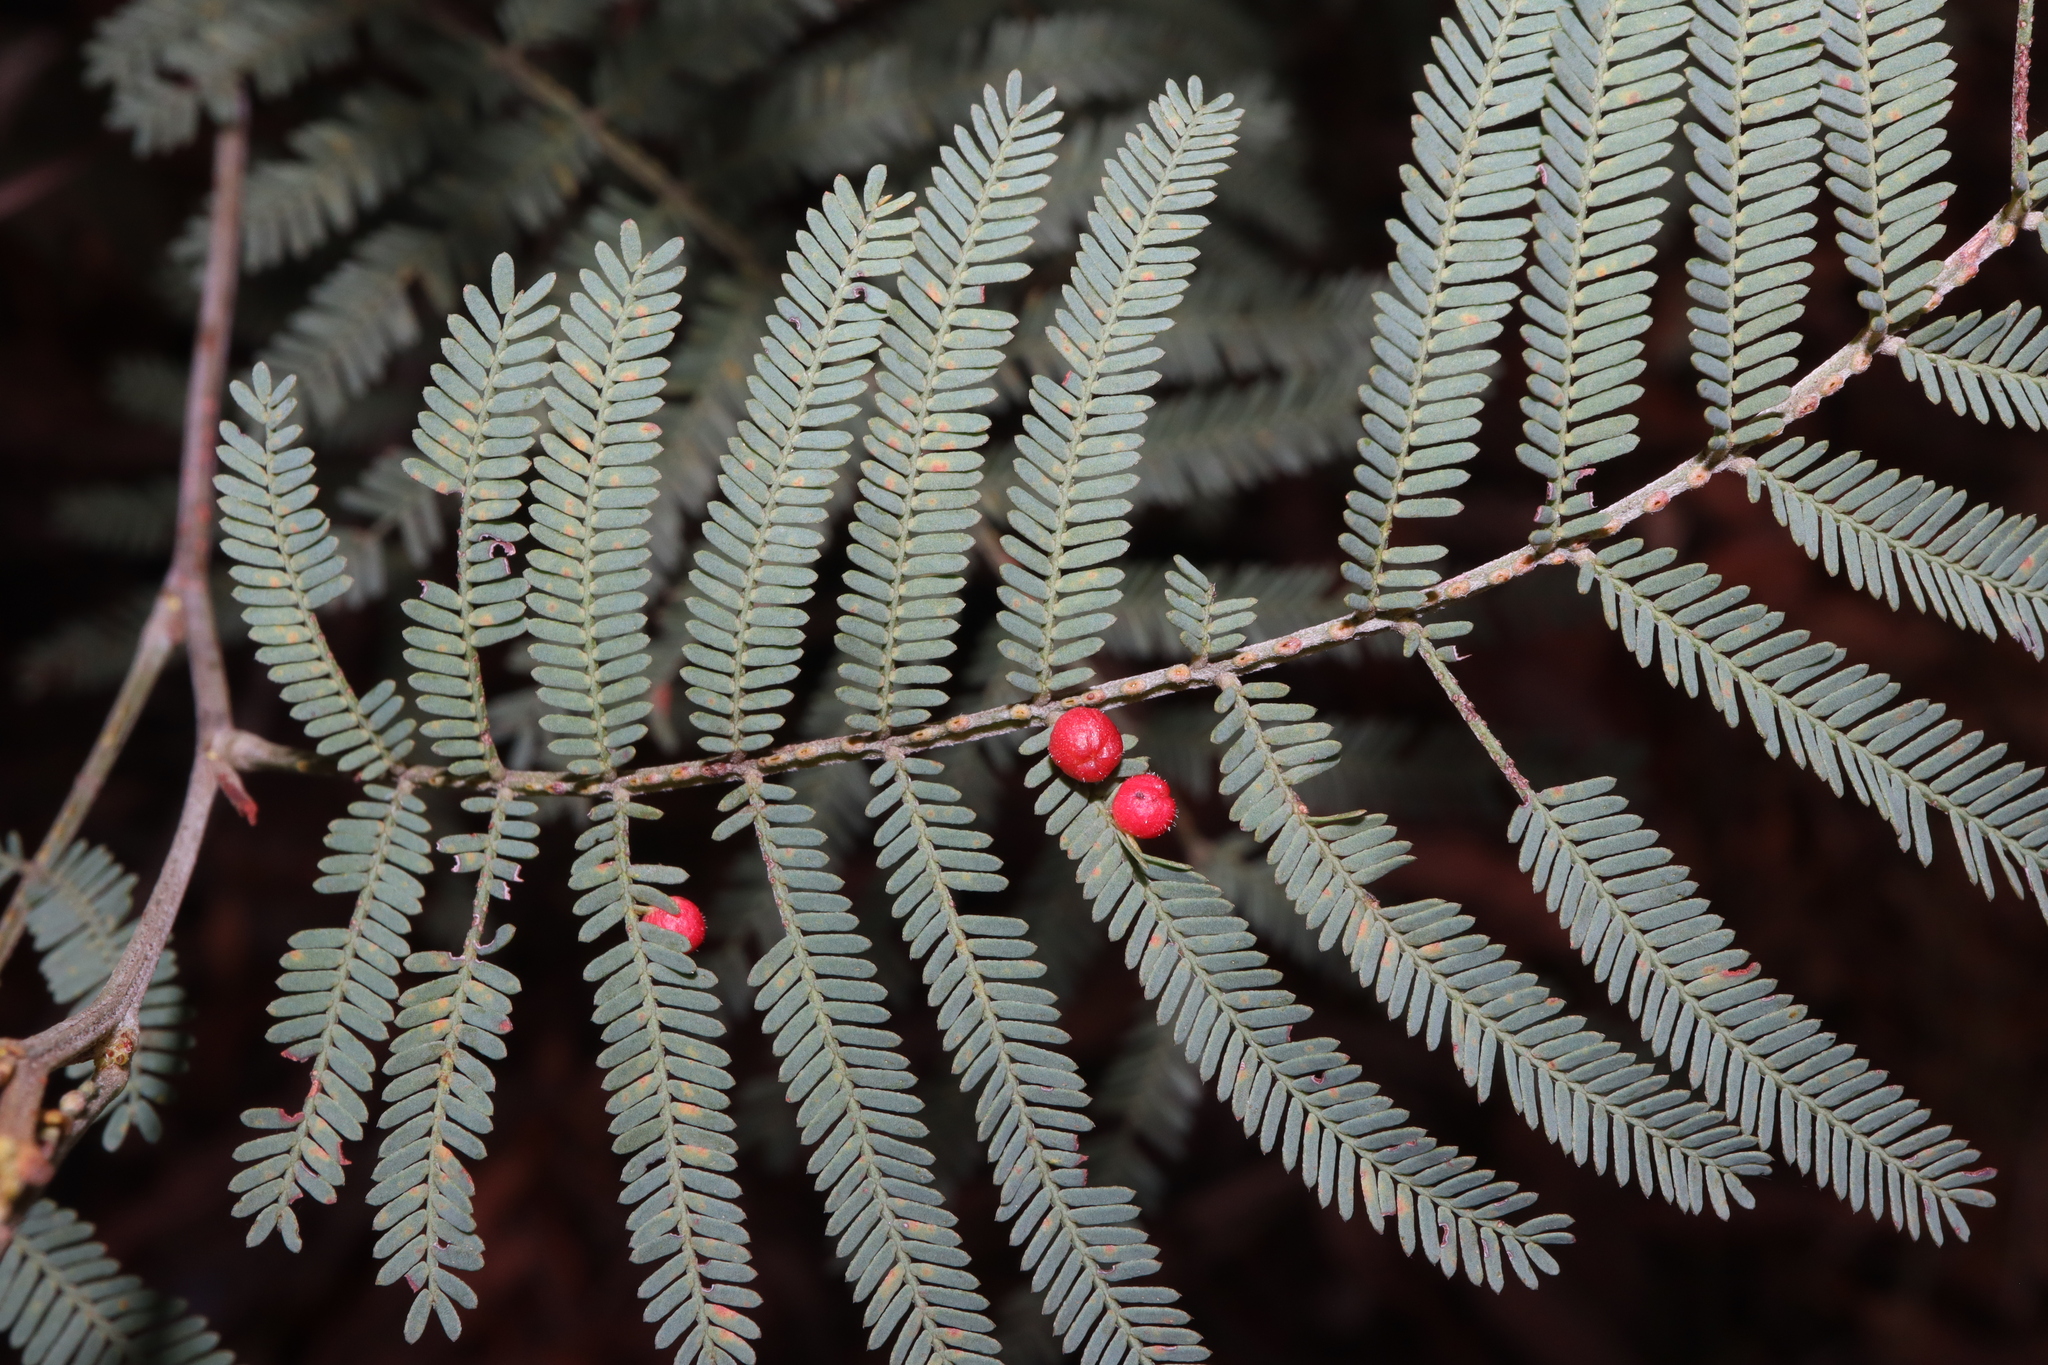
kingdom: Animalia
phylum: Arthropoda
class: Insecta
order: Diptera
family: Cecidomyiidae
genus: Austroacacidiplosis
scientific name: Austroacacidiplosis botrycephalae
